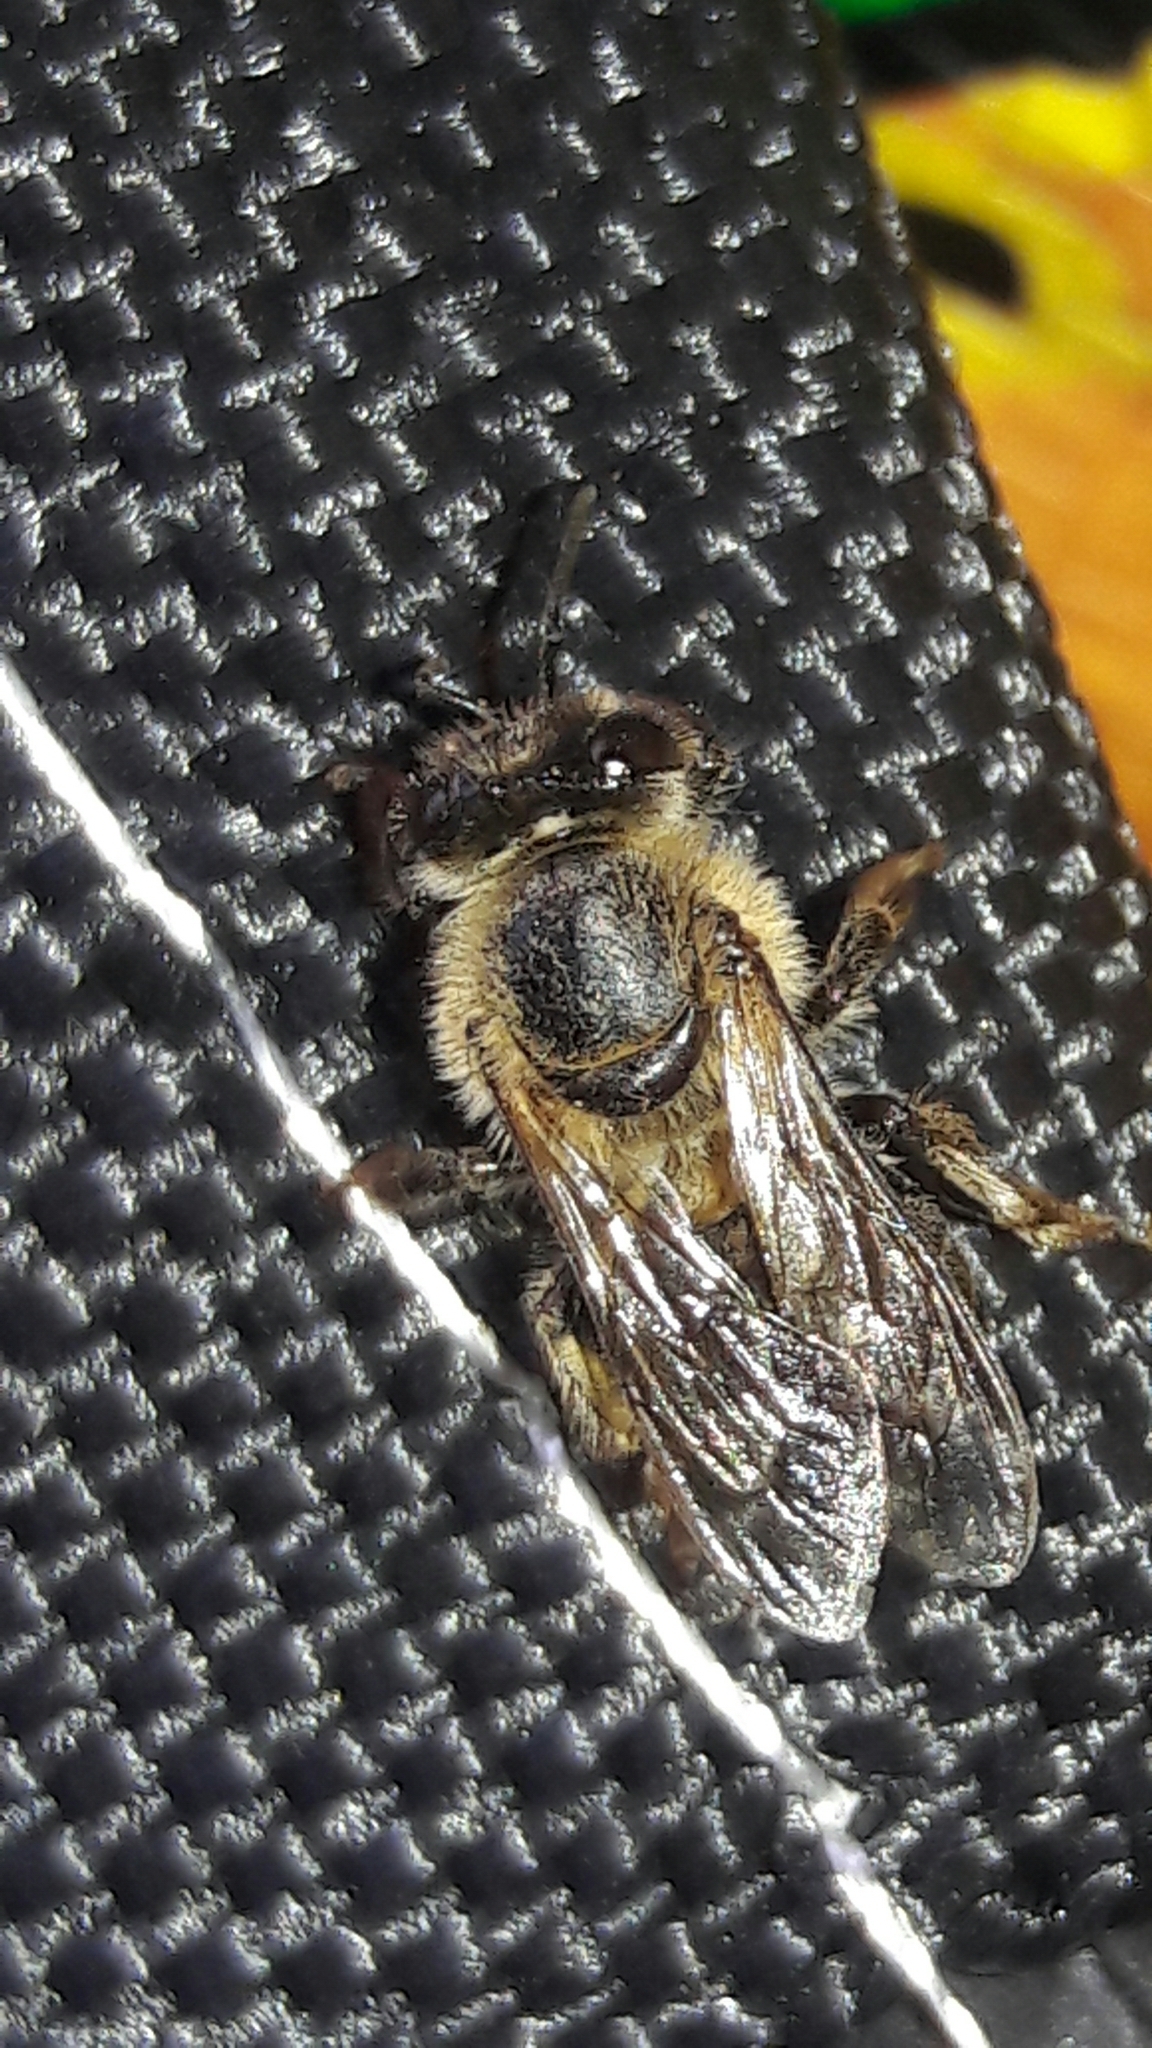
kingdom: Animalia
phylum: Arthropoda
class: Insecta
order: Hymenoptera
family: Apidae
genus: Apis
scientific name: Apis mellifera
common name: Honey bee
